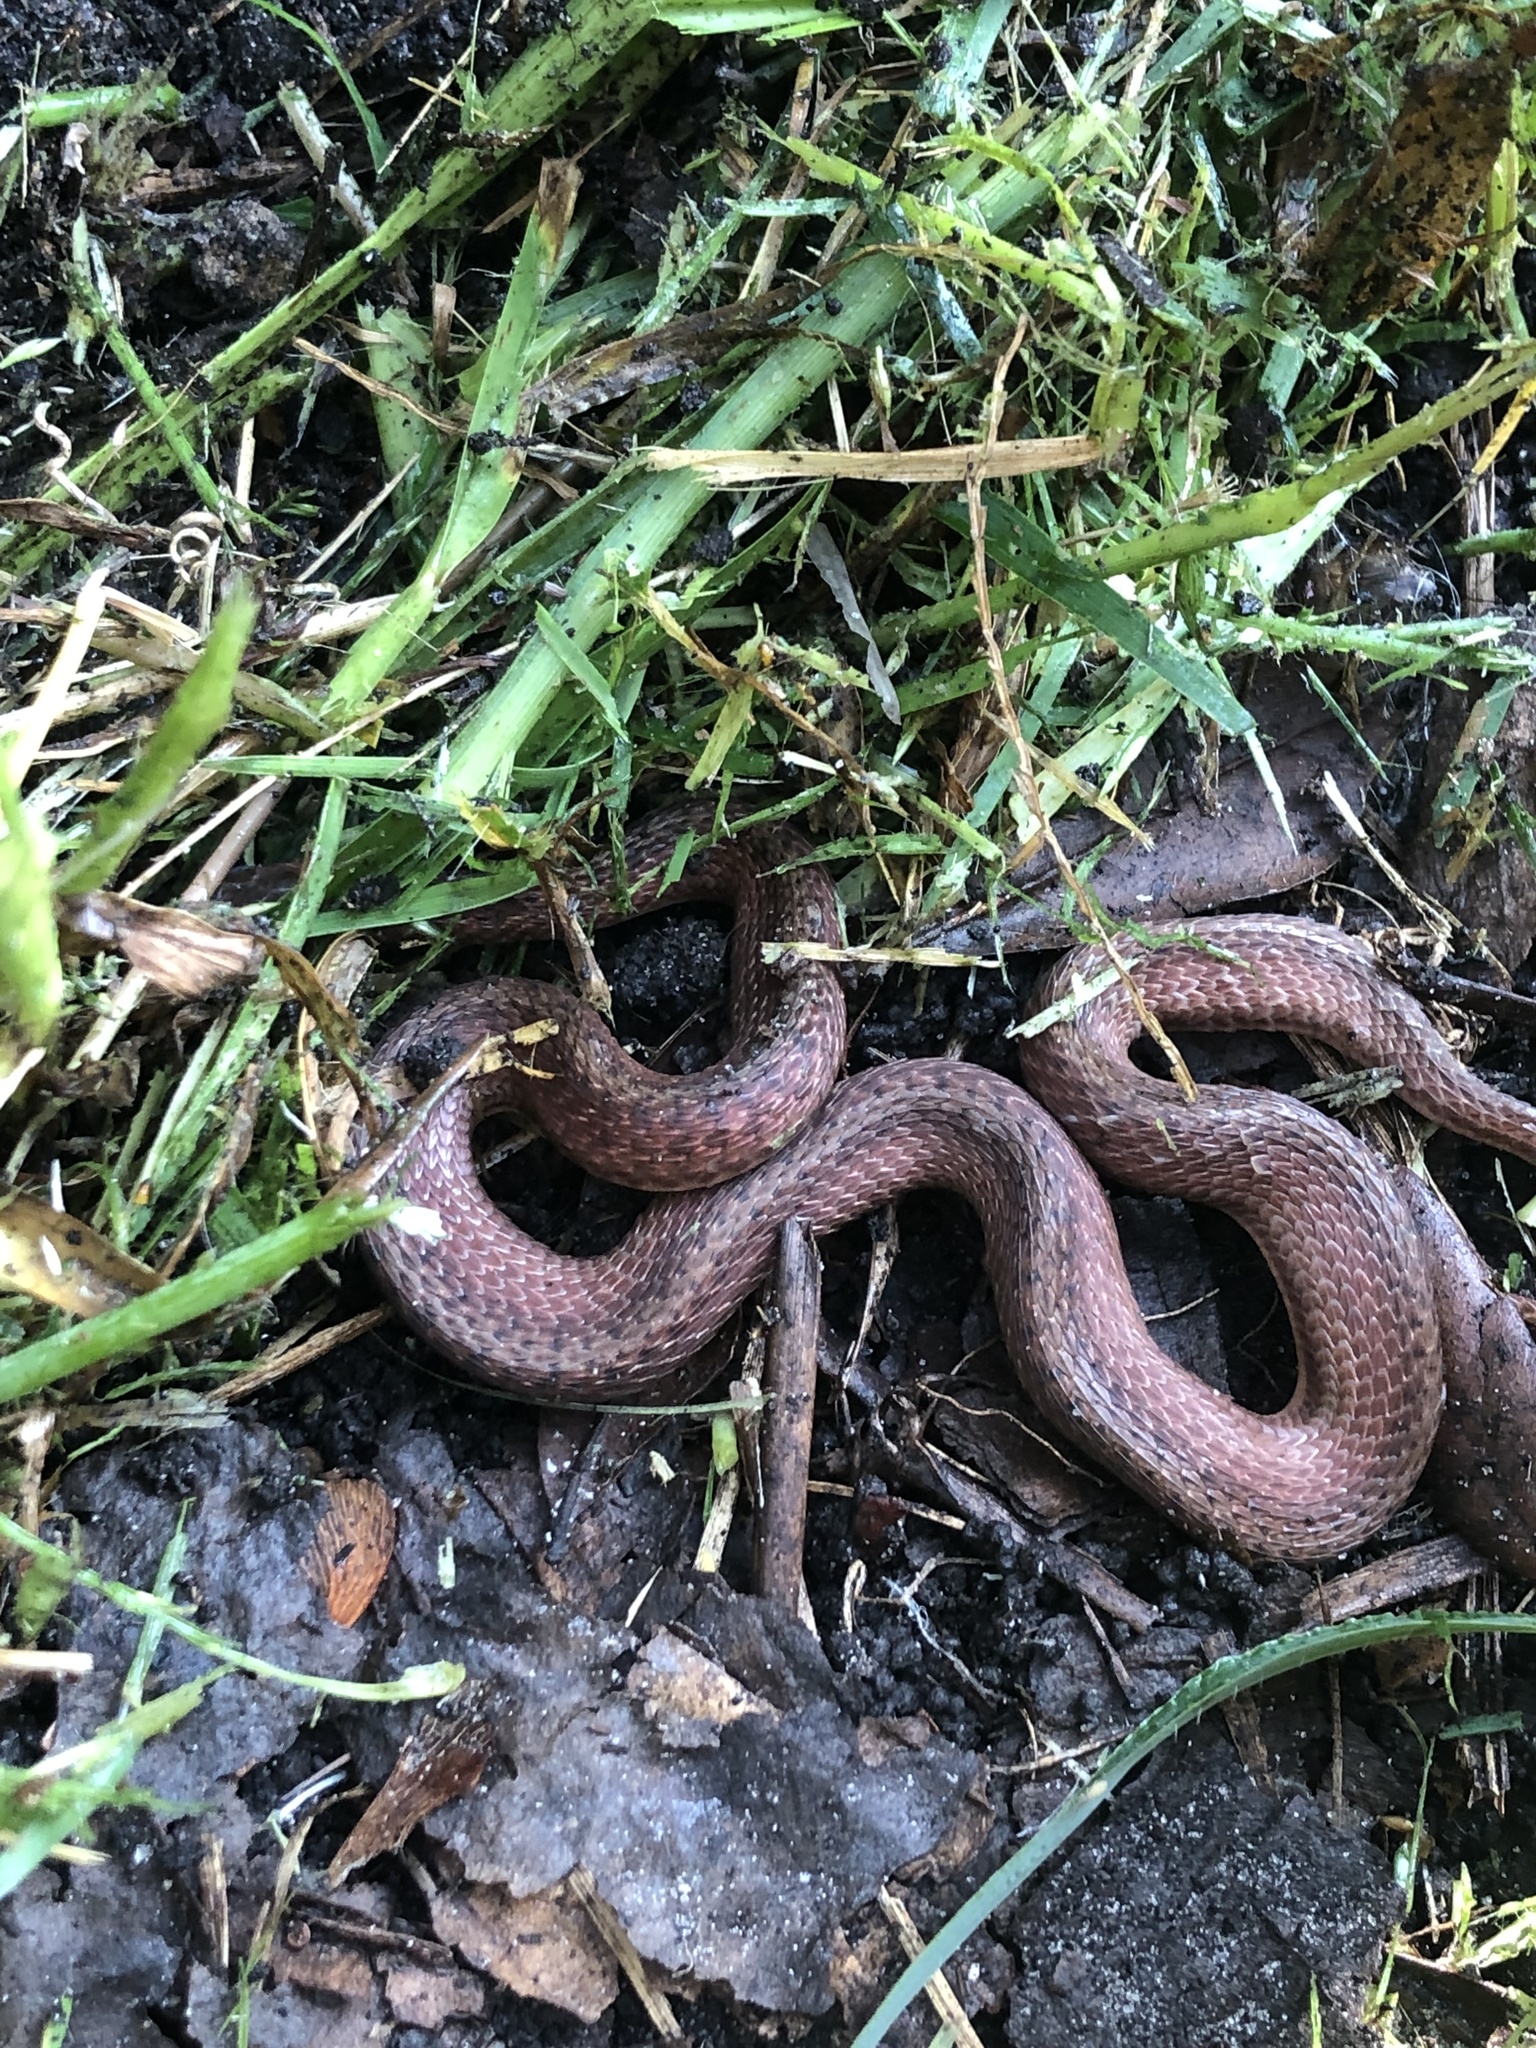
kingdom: Animalia
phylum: Chordata
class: Squamata
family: Colubridae
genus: Storeria
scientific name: Storeria victa
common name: Florida brown snake
